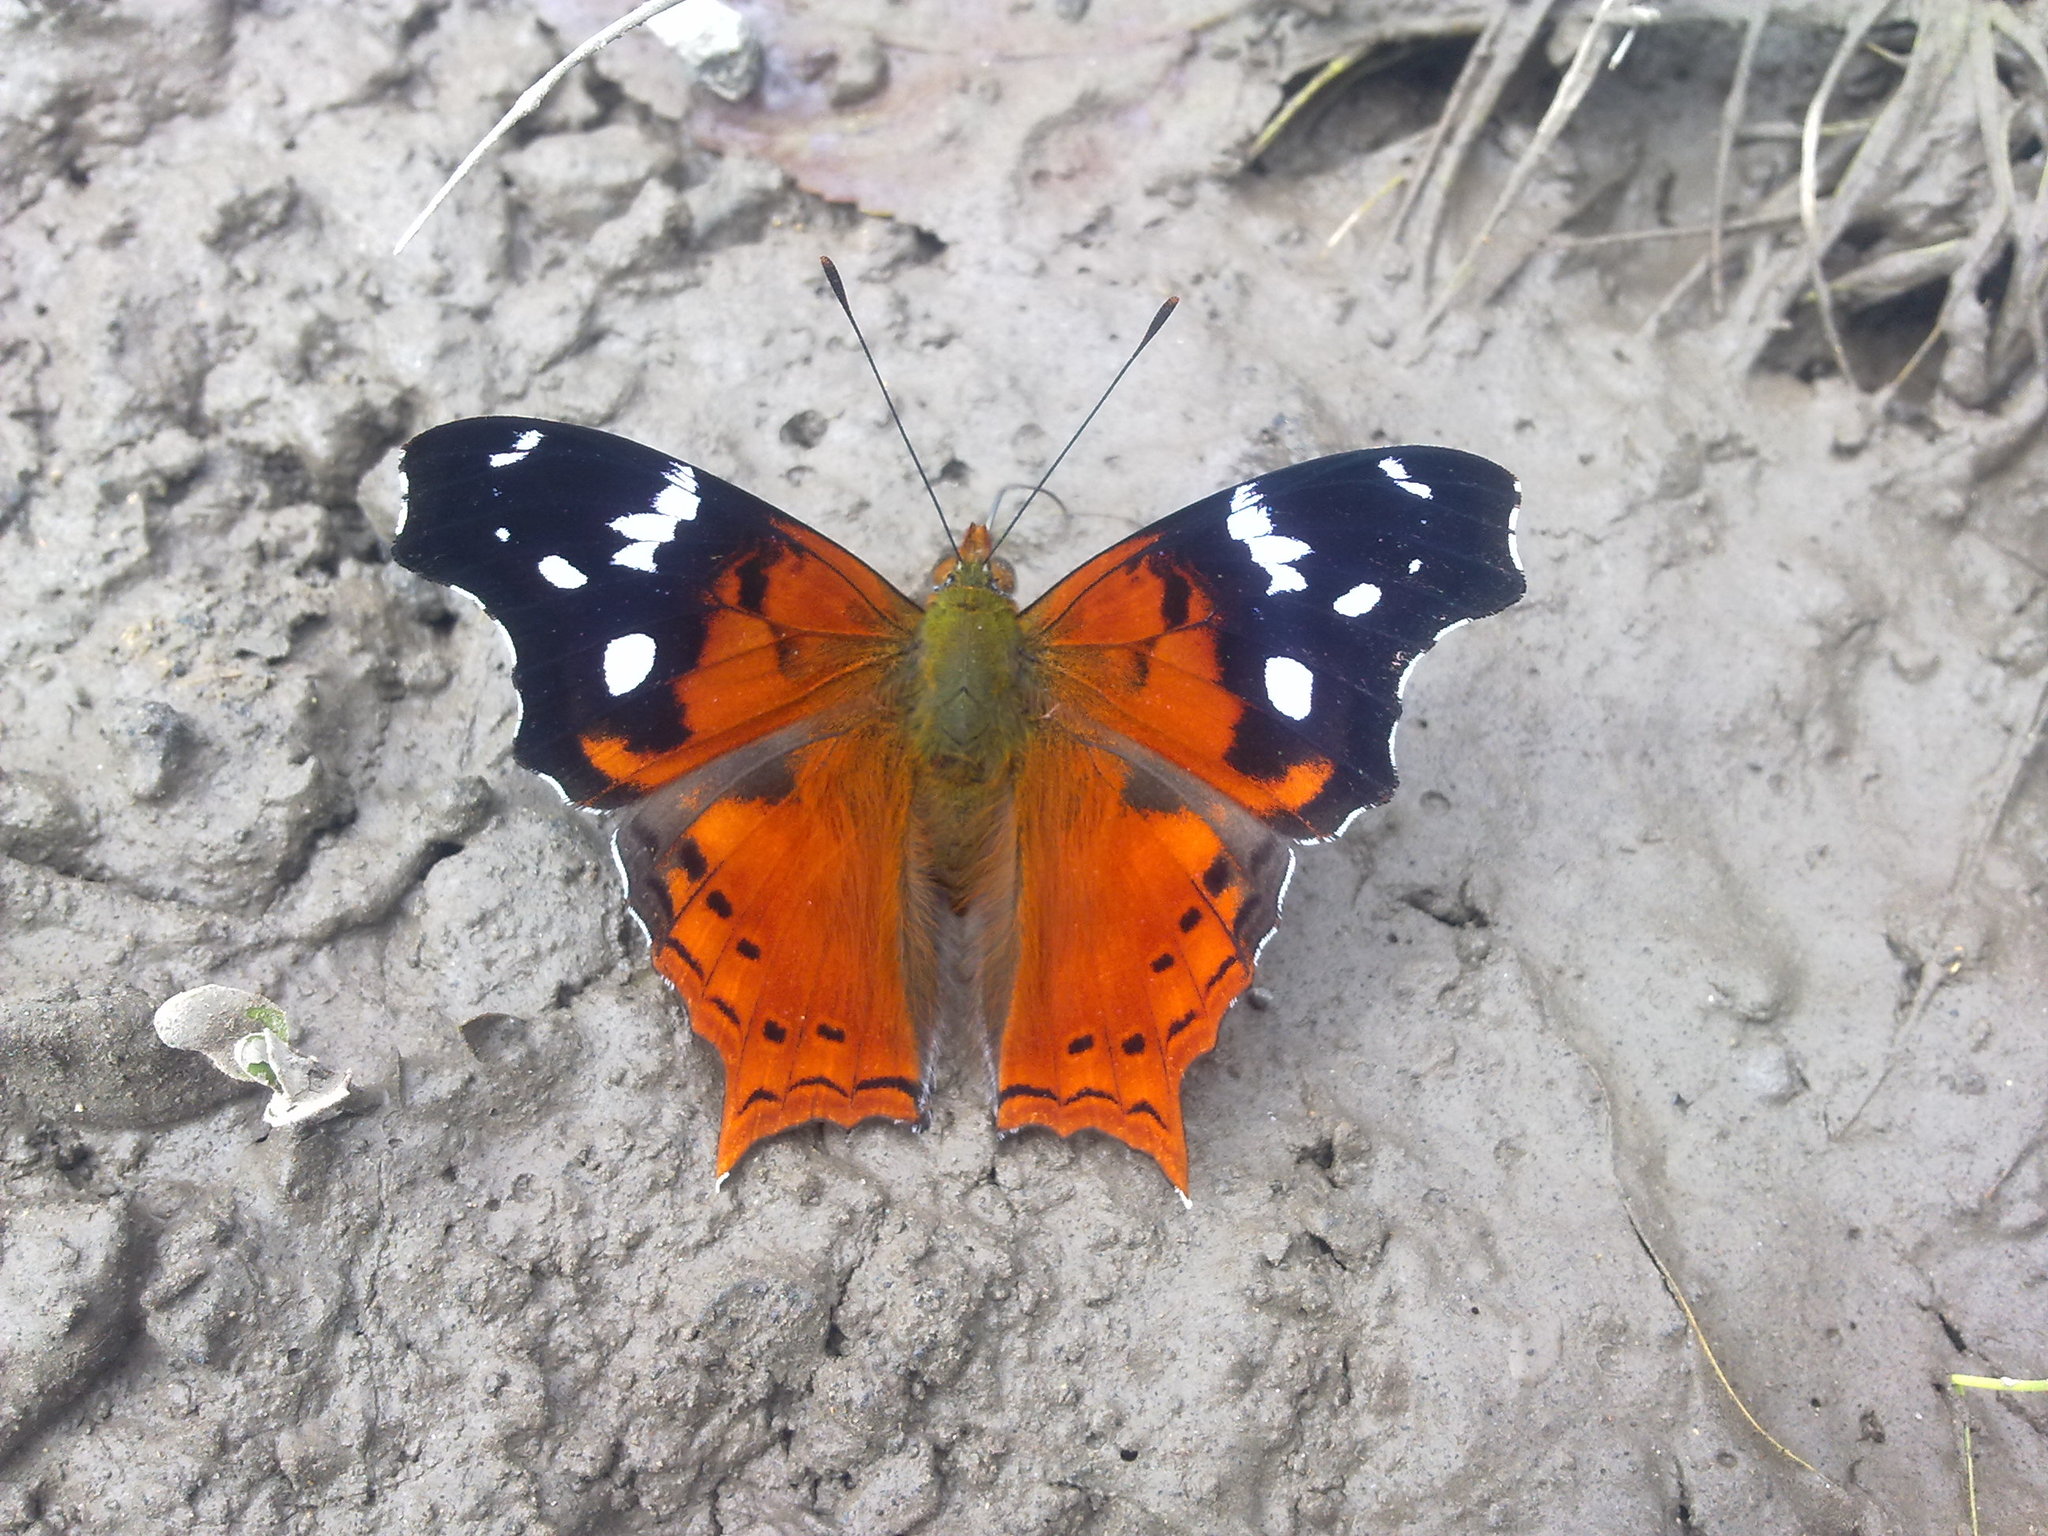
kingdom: Animalia
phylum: Arthropoda
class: Insecta
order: Lepidoptera
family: Nymphalidae
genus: Hypanartia
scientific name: Hypanartia trimaculata
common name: Reddish mapwing
